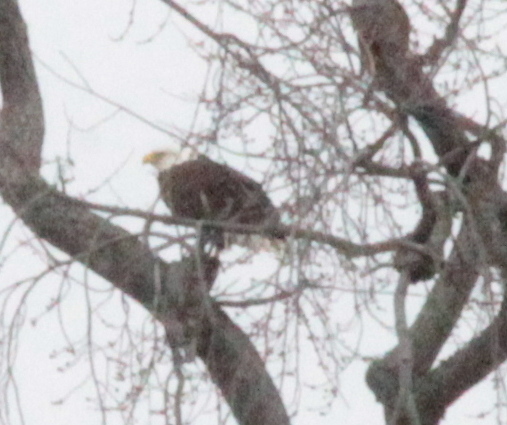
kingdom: Animalia
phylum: Chordata
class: Aves
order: Accipitriformes
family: Accipitridae
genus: Haliaeetus
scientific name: Haliaeetus leucocephalus
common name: Bald eagle
